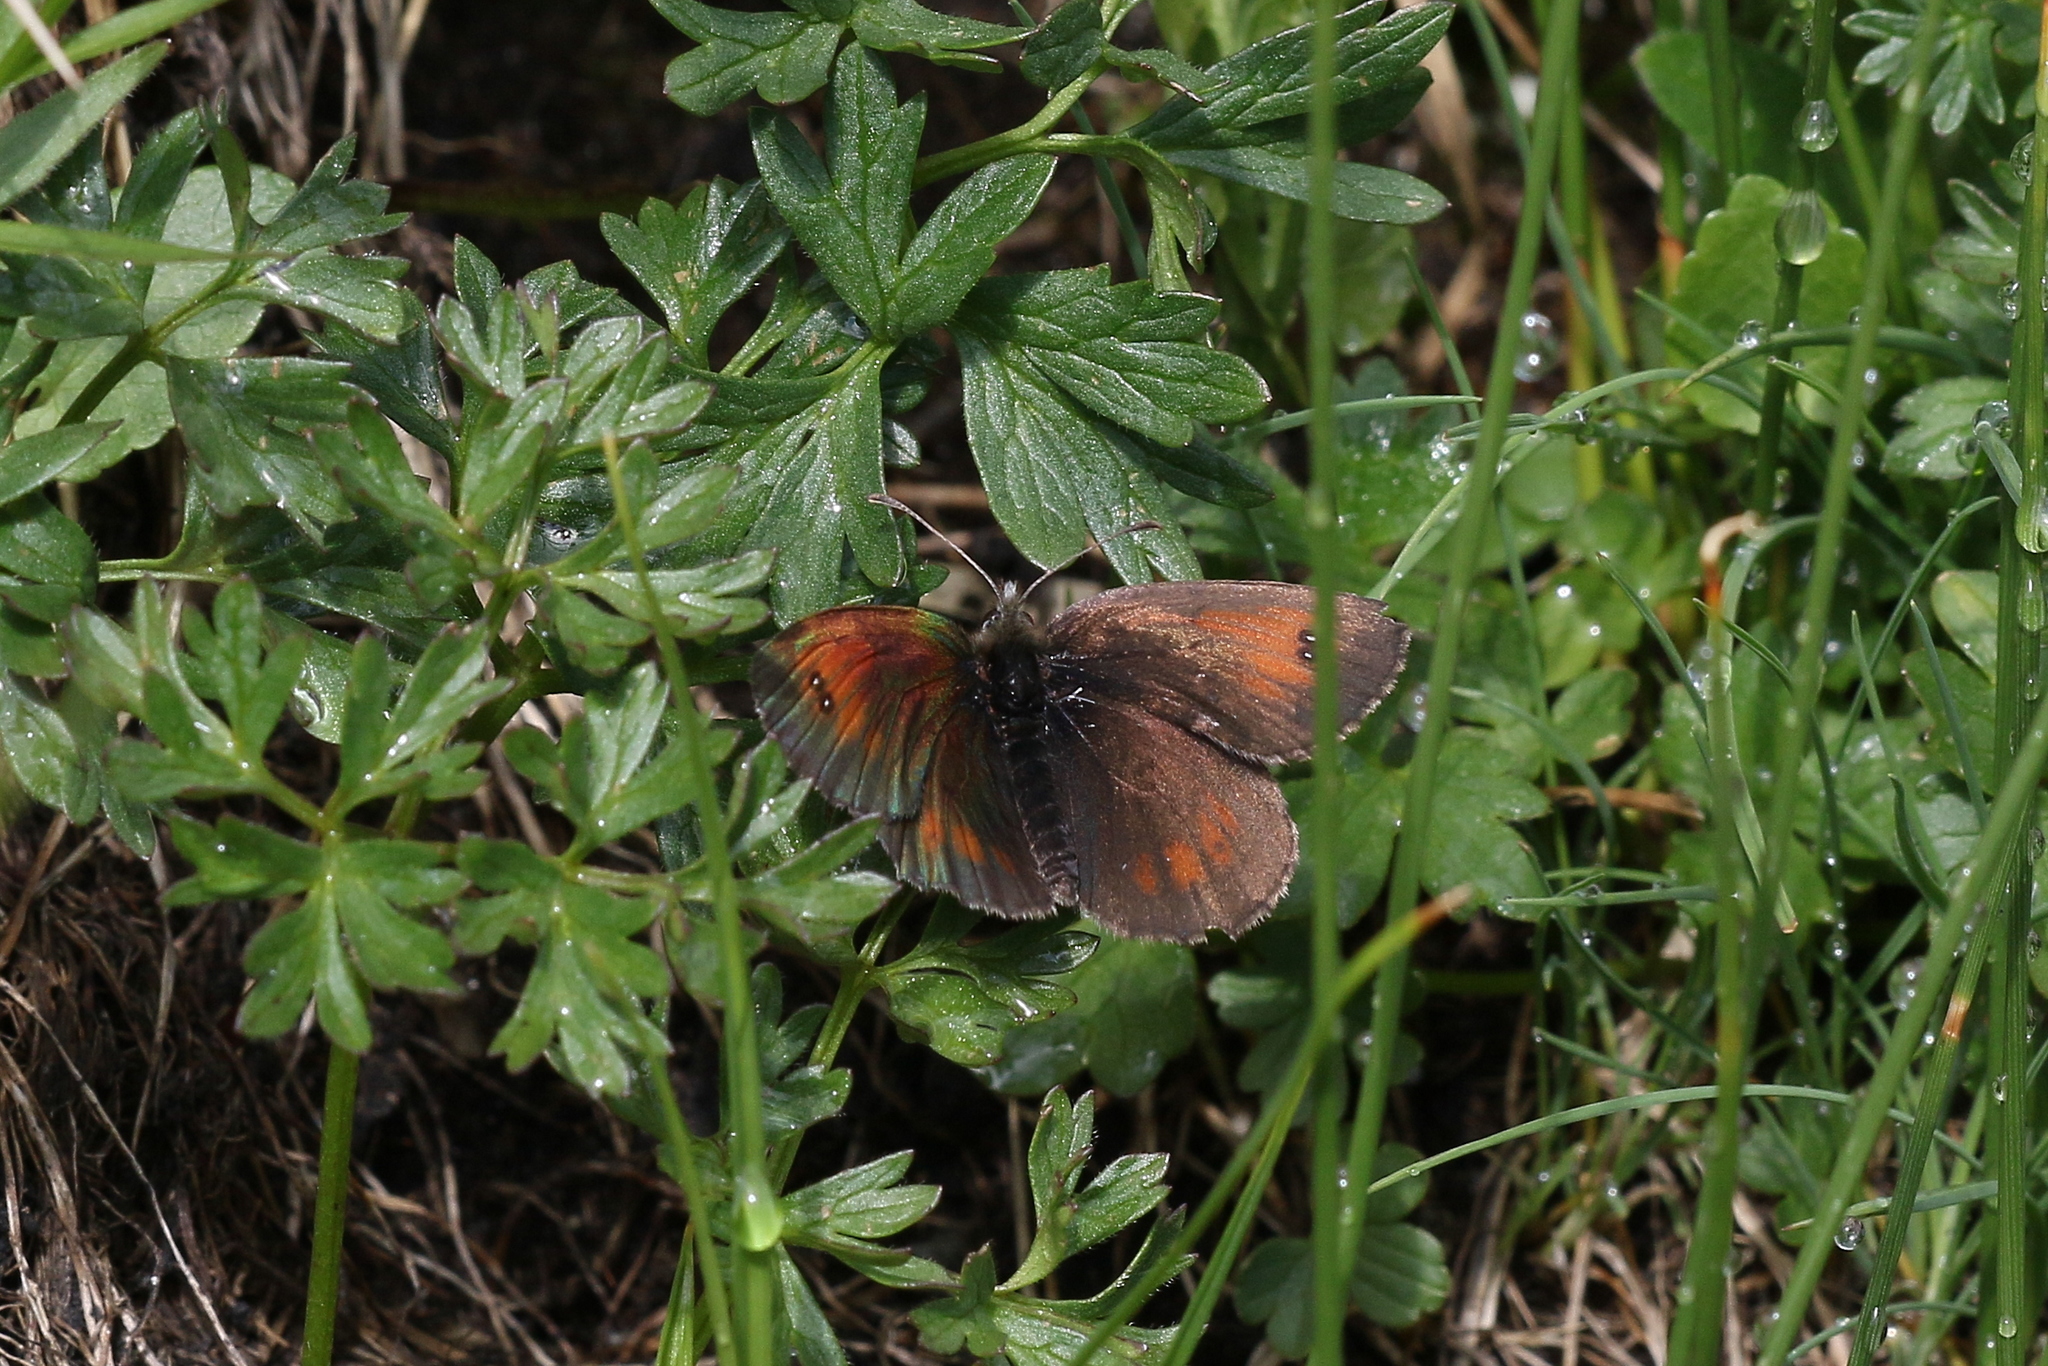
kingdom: Animalia
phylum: Arthropoda
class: Insecta
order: Lepidoptera
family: Nymphalidae
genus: Erebia
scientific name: Erebia nivalis
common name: De lesse’s brassy ringlet
